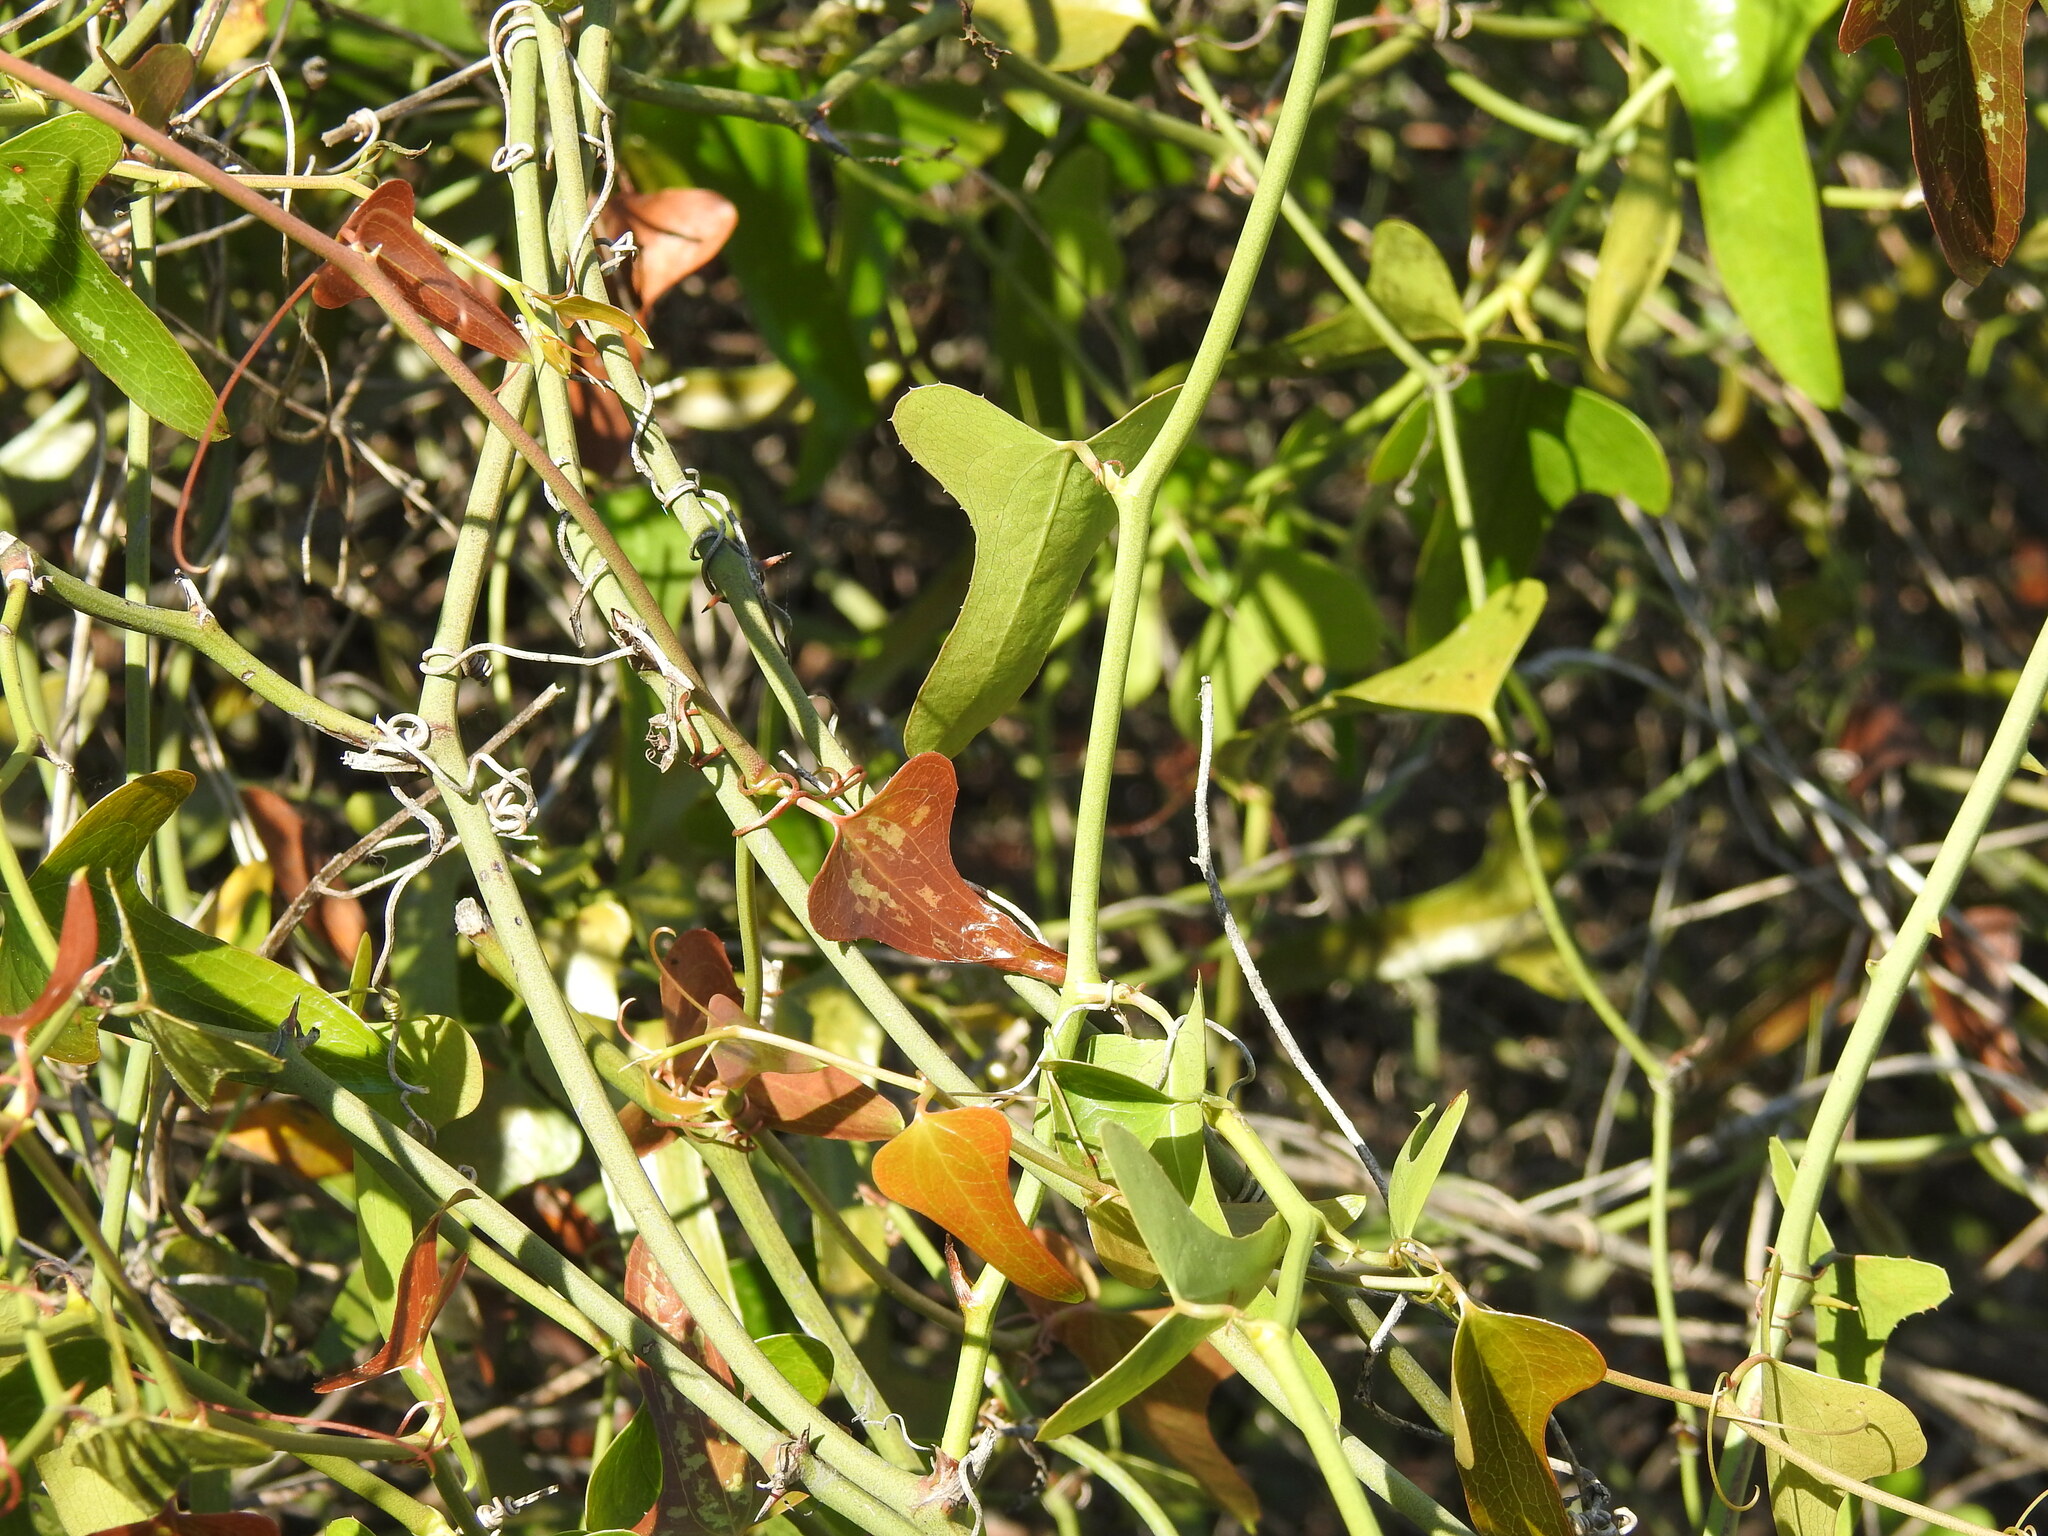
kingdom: Plantae
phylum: Tracheophyta
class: Liliopsida
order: Liliales
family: Smilacaceae
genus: Smilax
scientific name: Smilax bona-nox
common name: Catbrier
